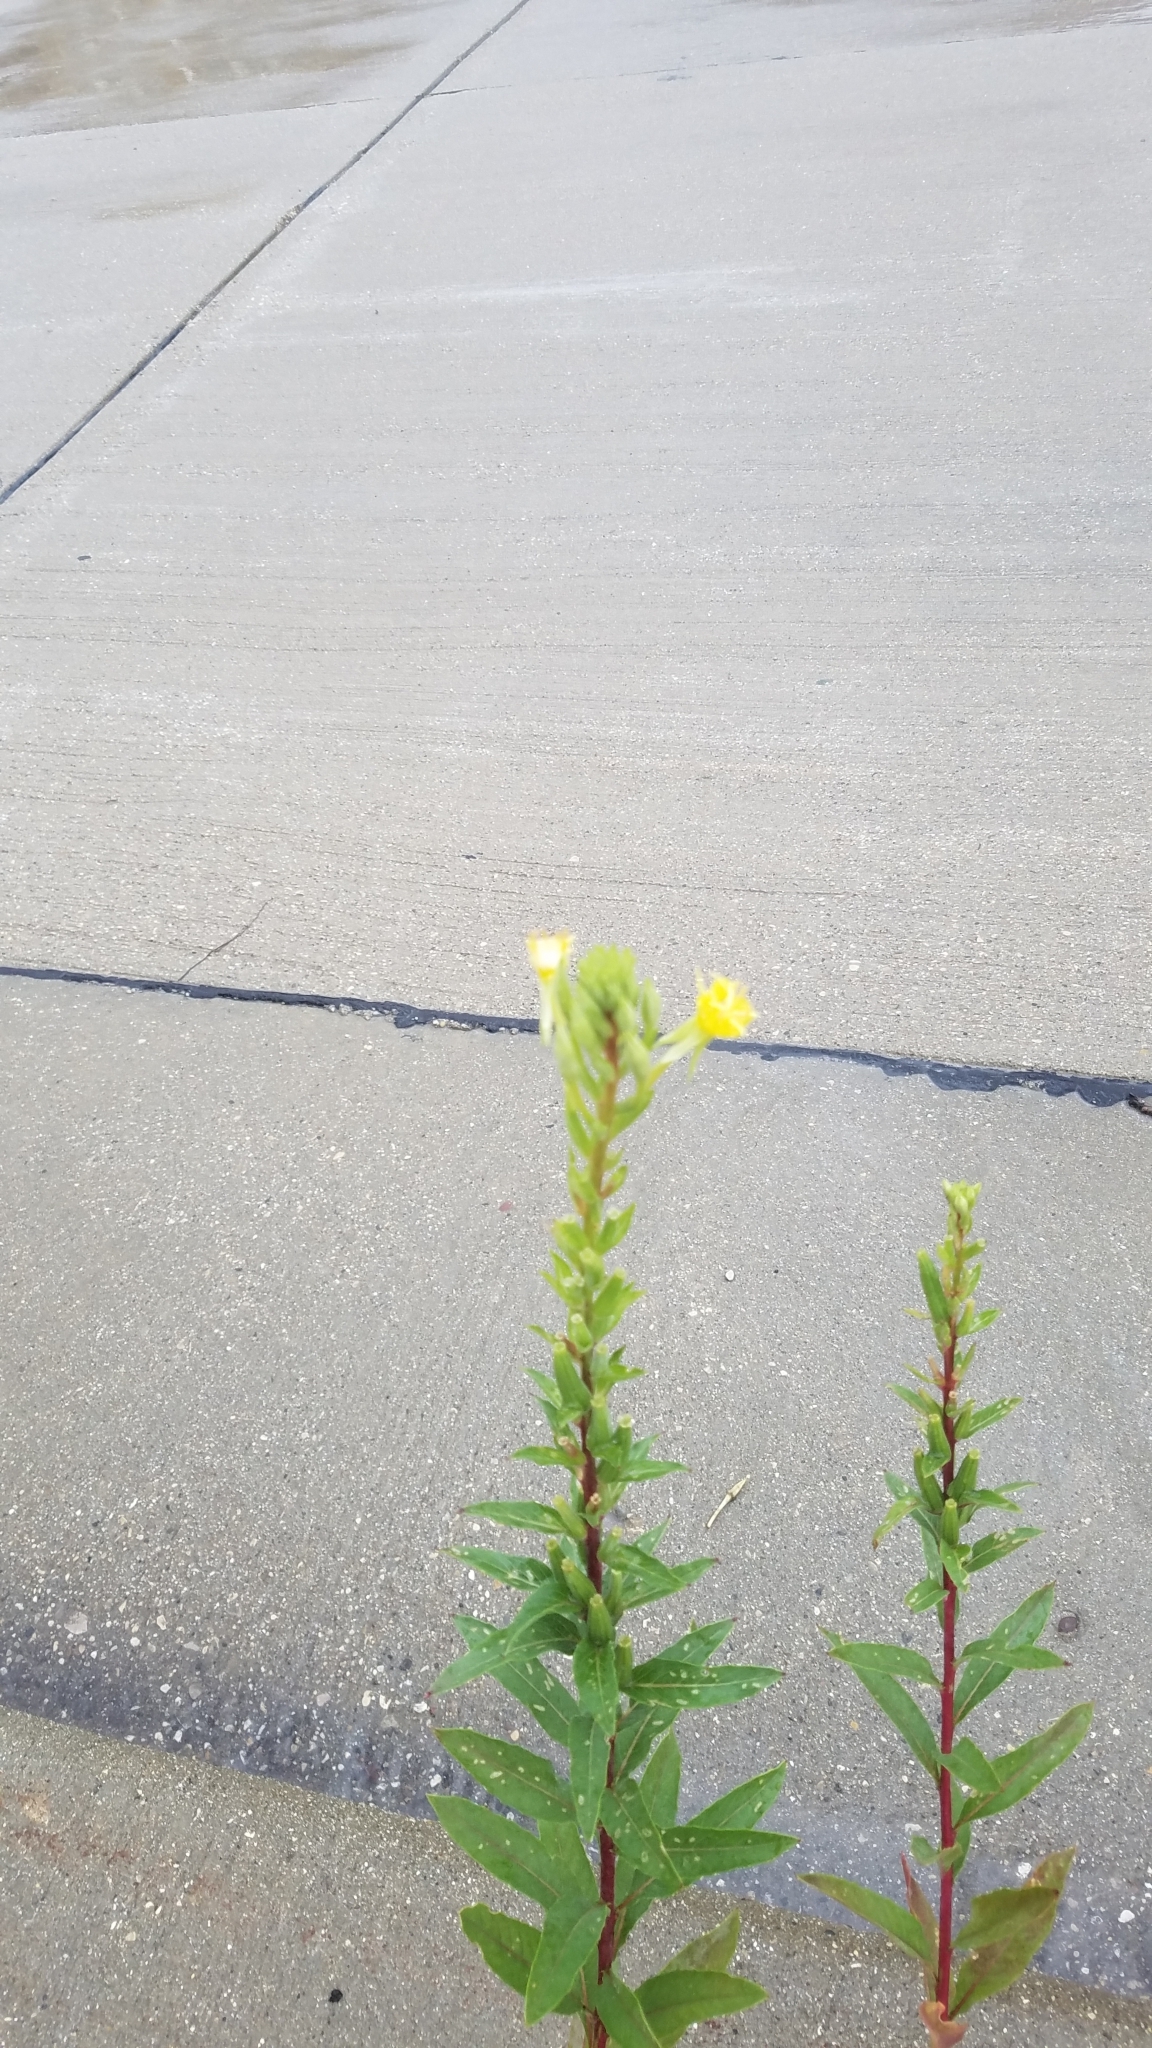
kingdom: Plantae
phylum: Tracheophyta
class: Magnoliopsida
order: Myrtales
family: Onagraceae
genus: Oenothera
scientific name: Oenothera biennis
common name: Common evening-primrose
